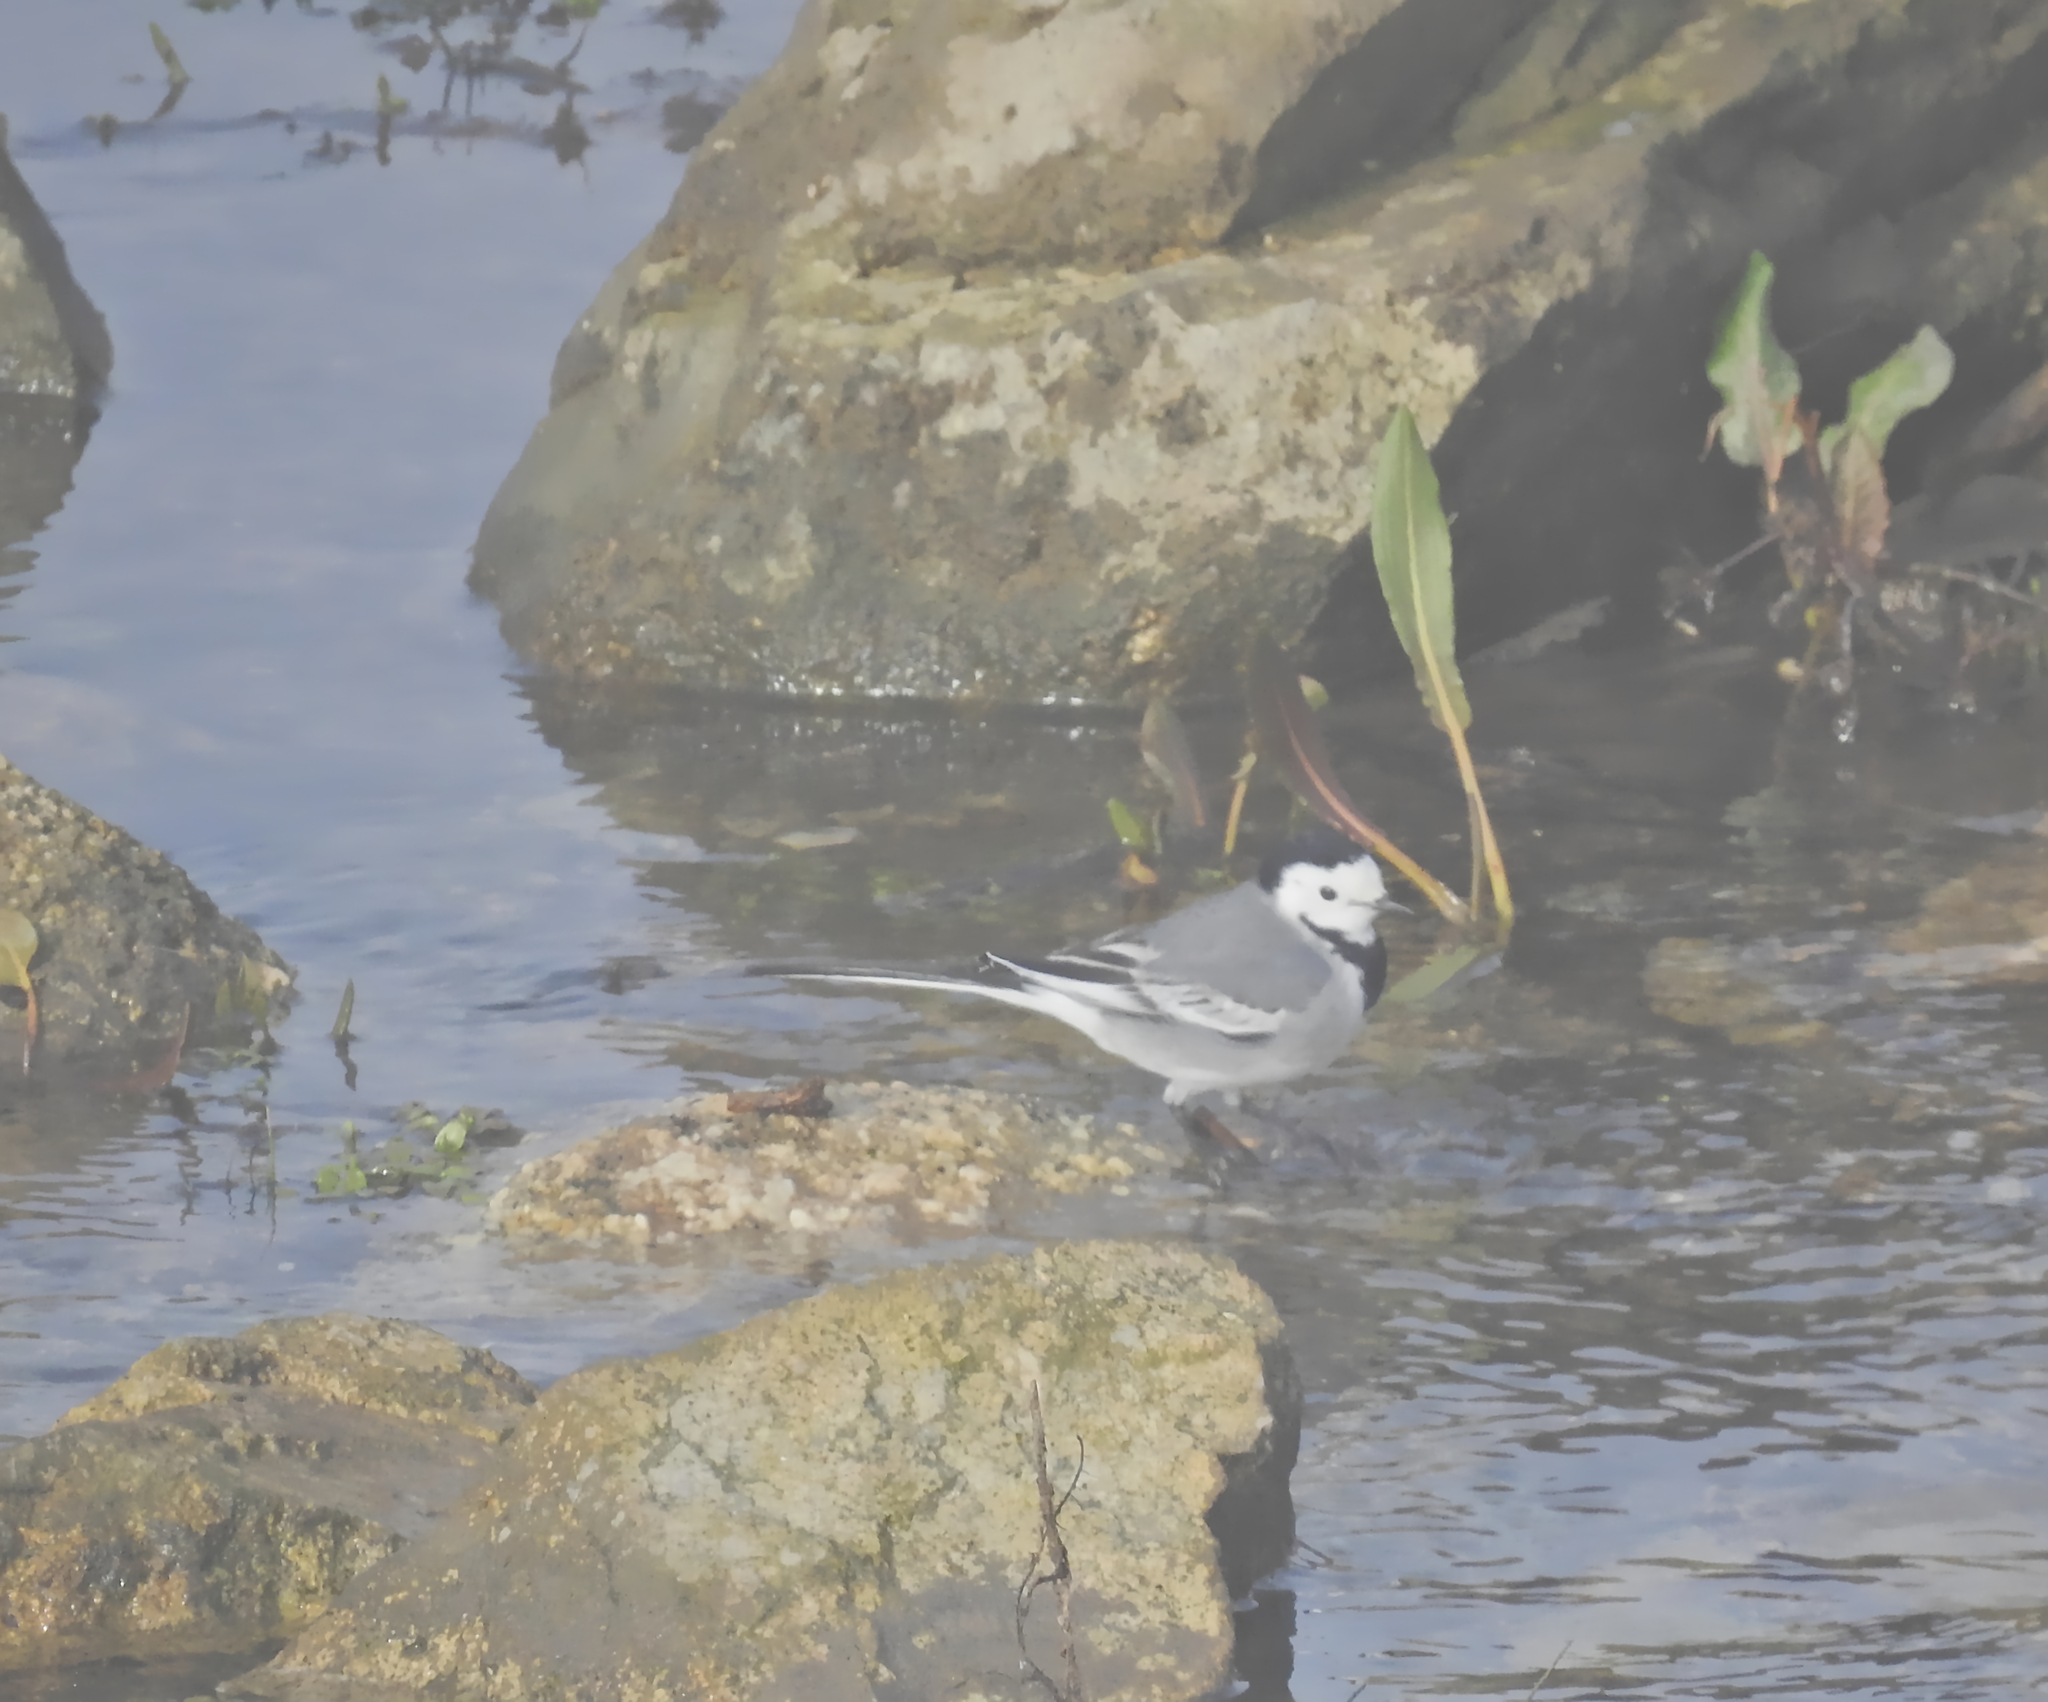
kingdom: Animalia
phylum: Chordata
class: Aves
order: Passeriformes
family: Motacillidae
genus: Motacilla
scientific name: Motacilla alba
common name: White wagtail
